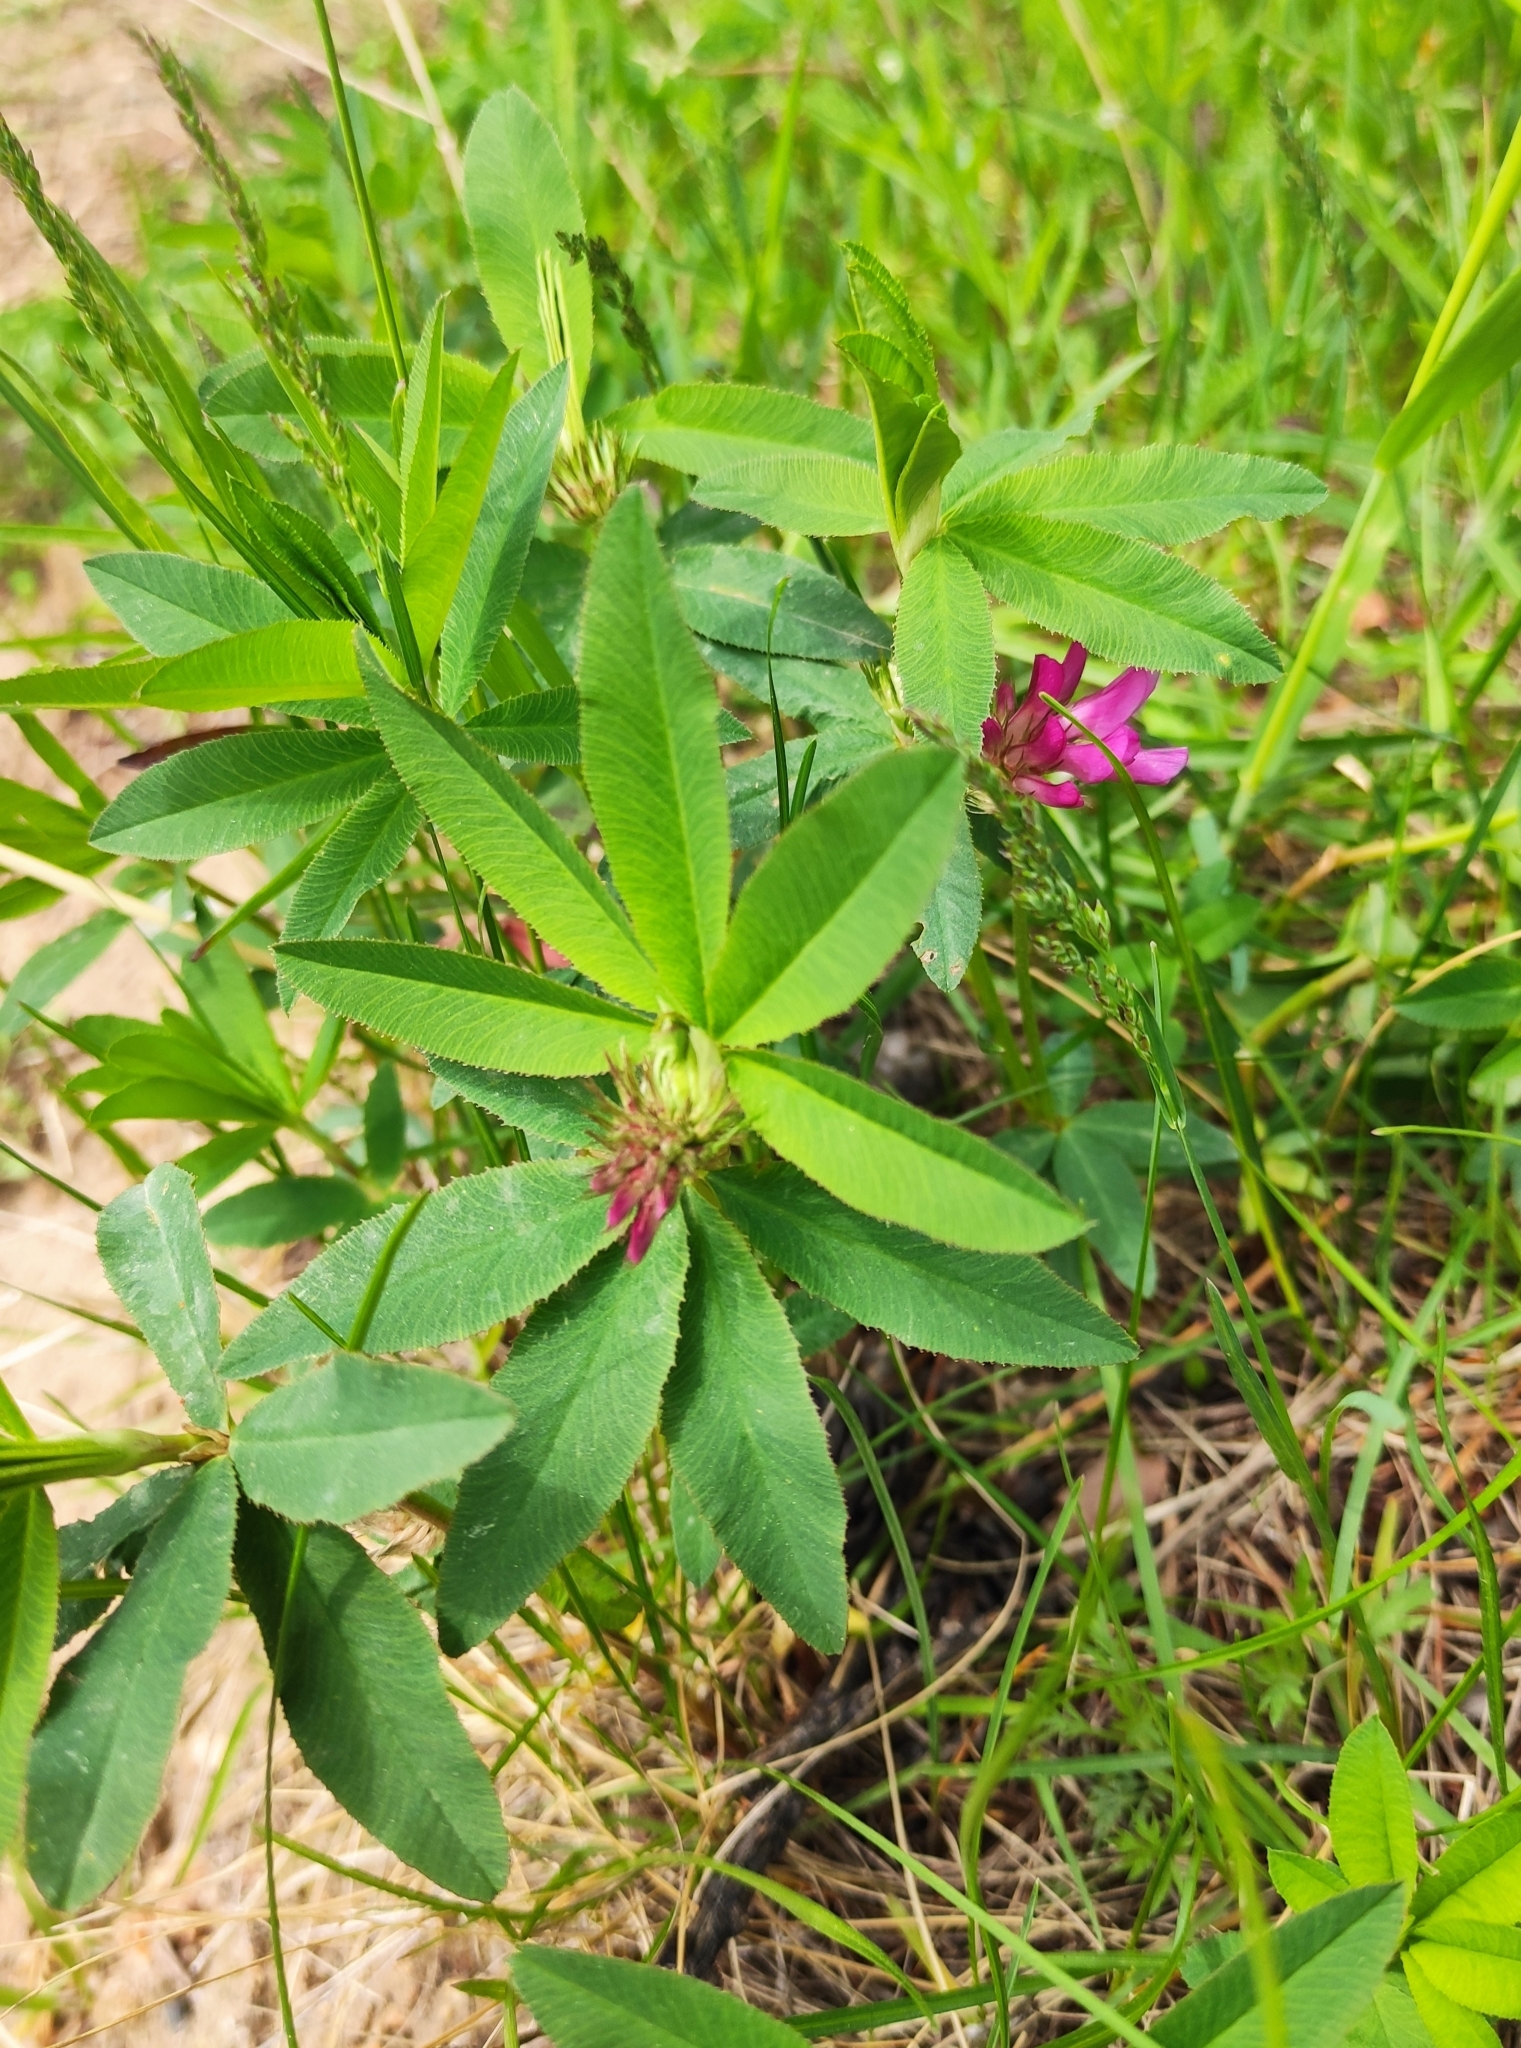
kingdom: Plantae
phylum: Tracheophyta
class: Magnoliopsida
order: Fabales
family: Fabaceae
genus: Trifolium
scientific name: Trifolium lupinaster
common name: Lupine clover
